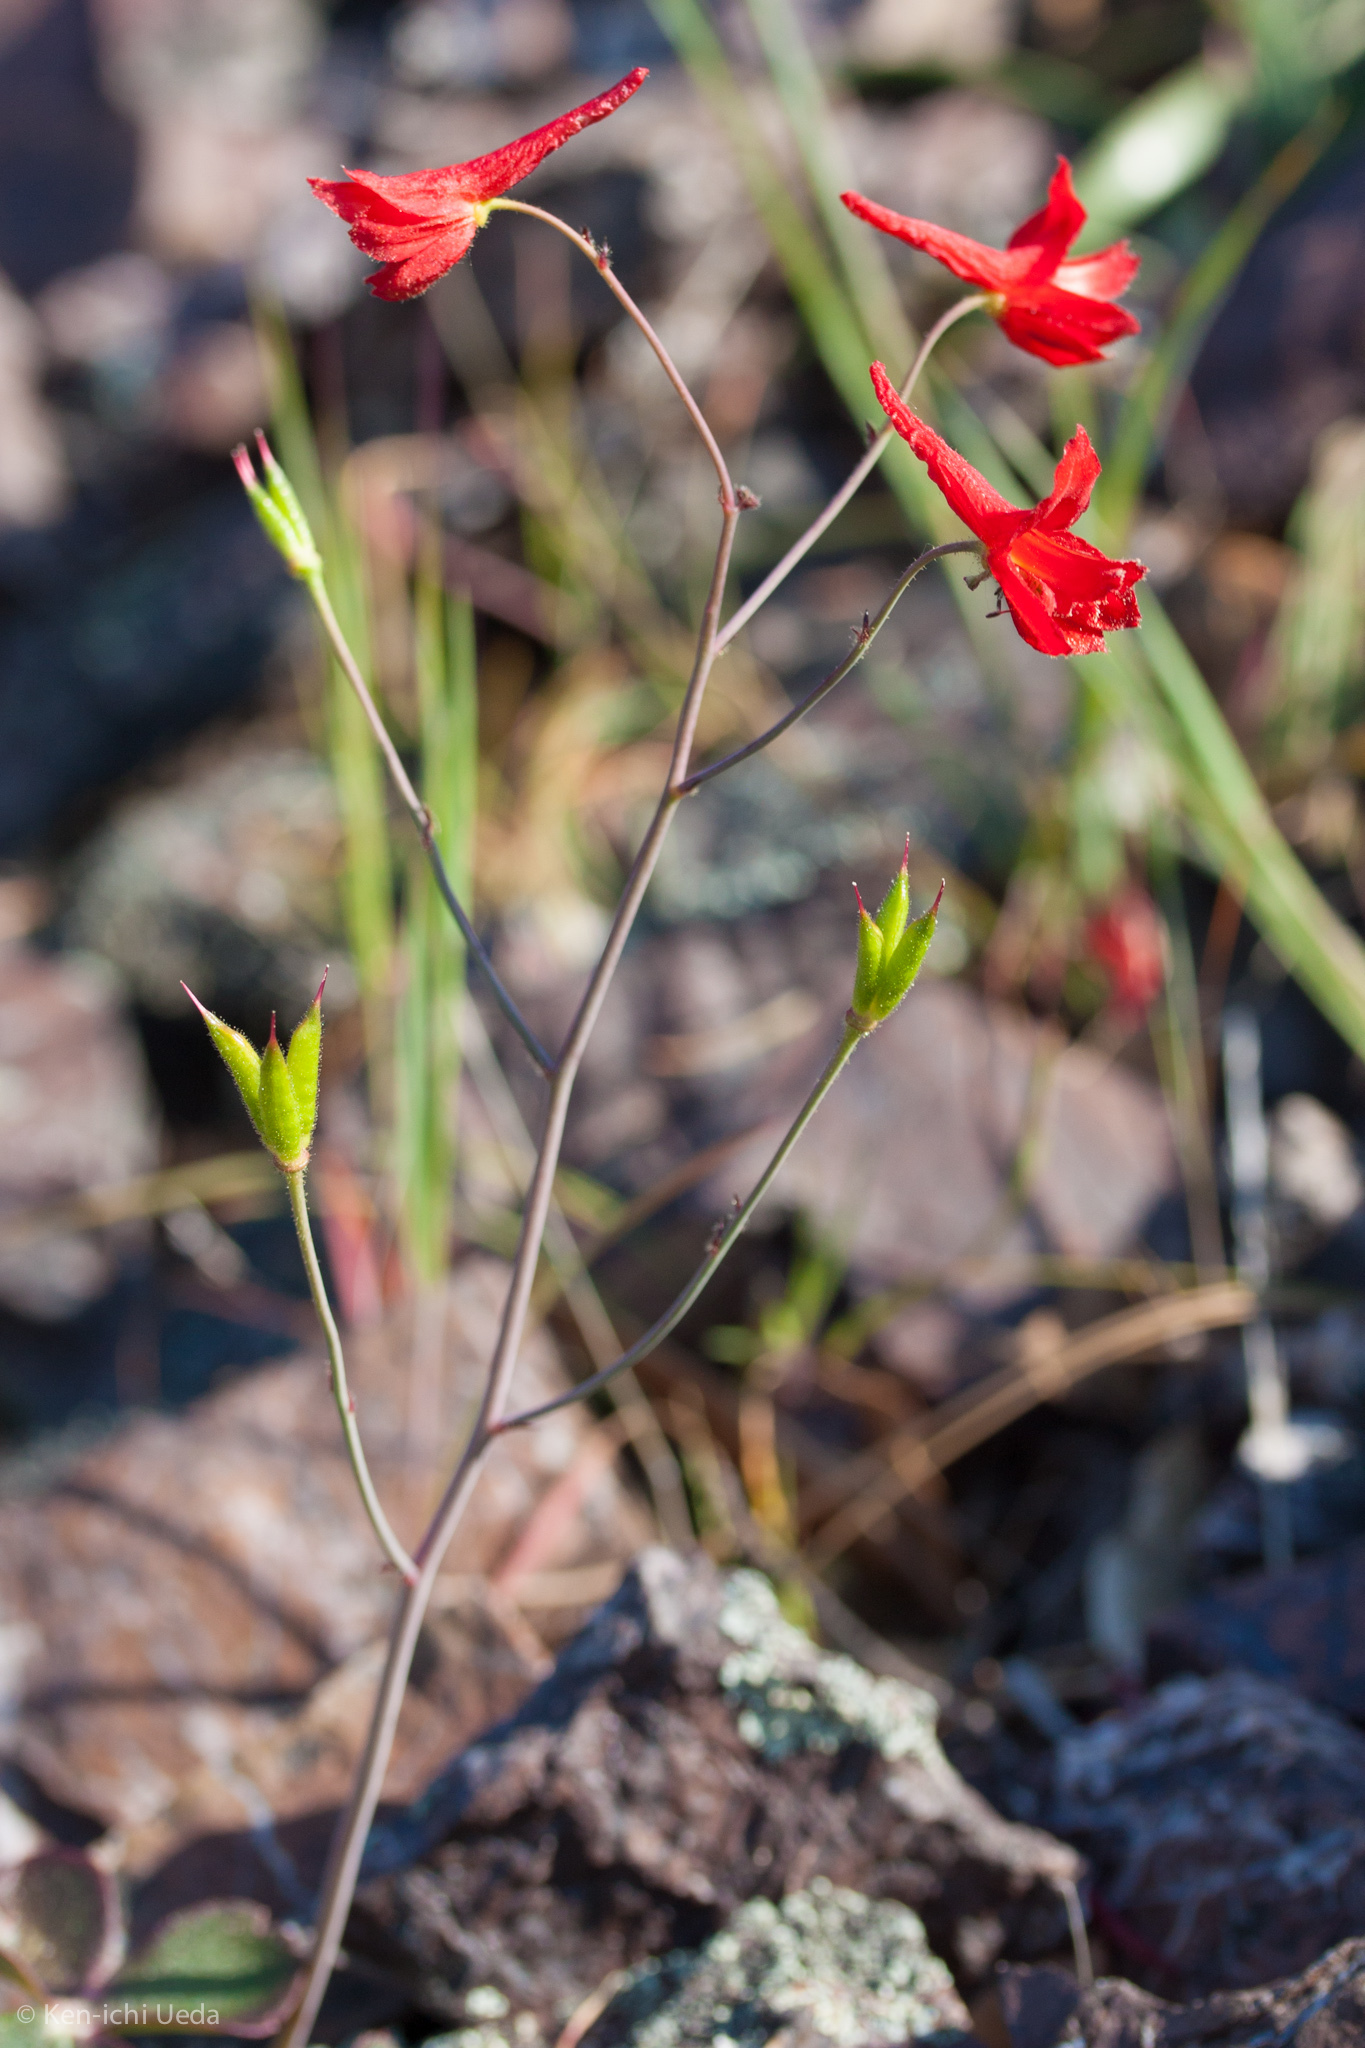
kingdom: Plantae
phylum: Tracheophyta
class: Magnoliopsida
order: Ranunculales
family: Ranunculaceae
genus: Delphinium
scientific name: Delphinium nudicaule
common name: Red larkspur
